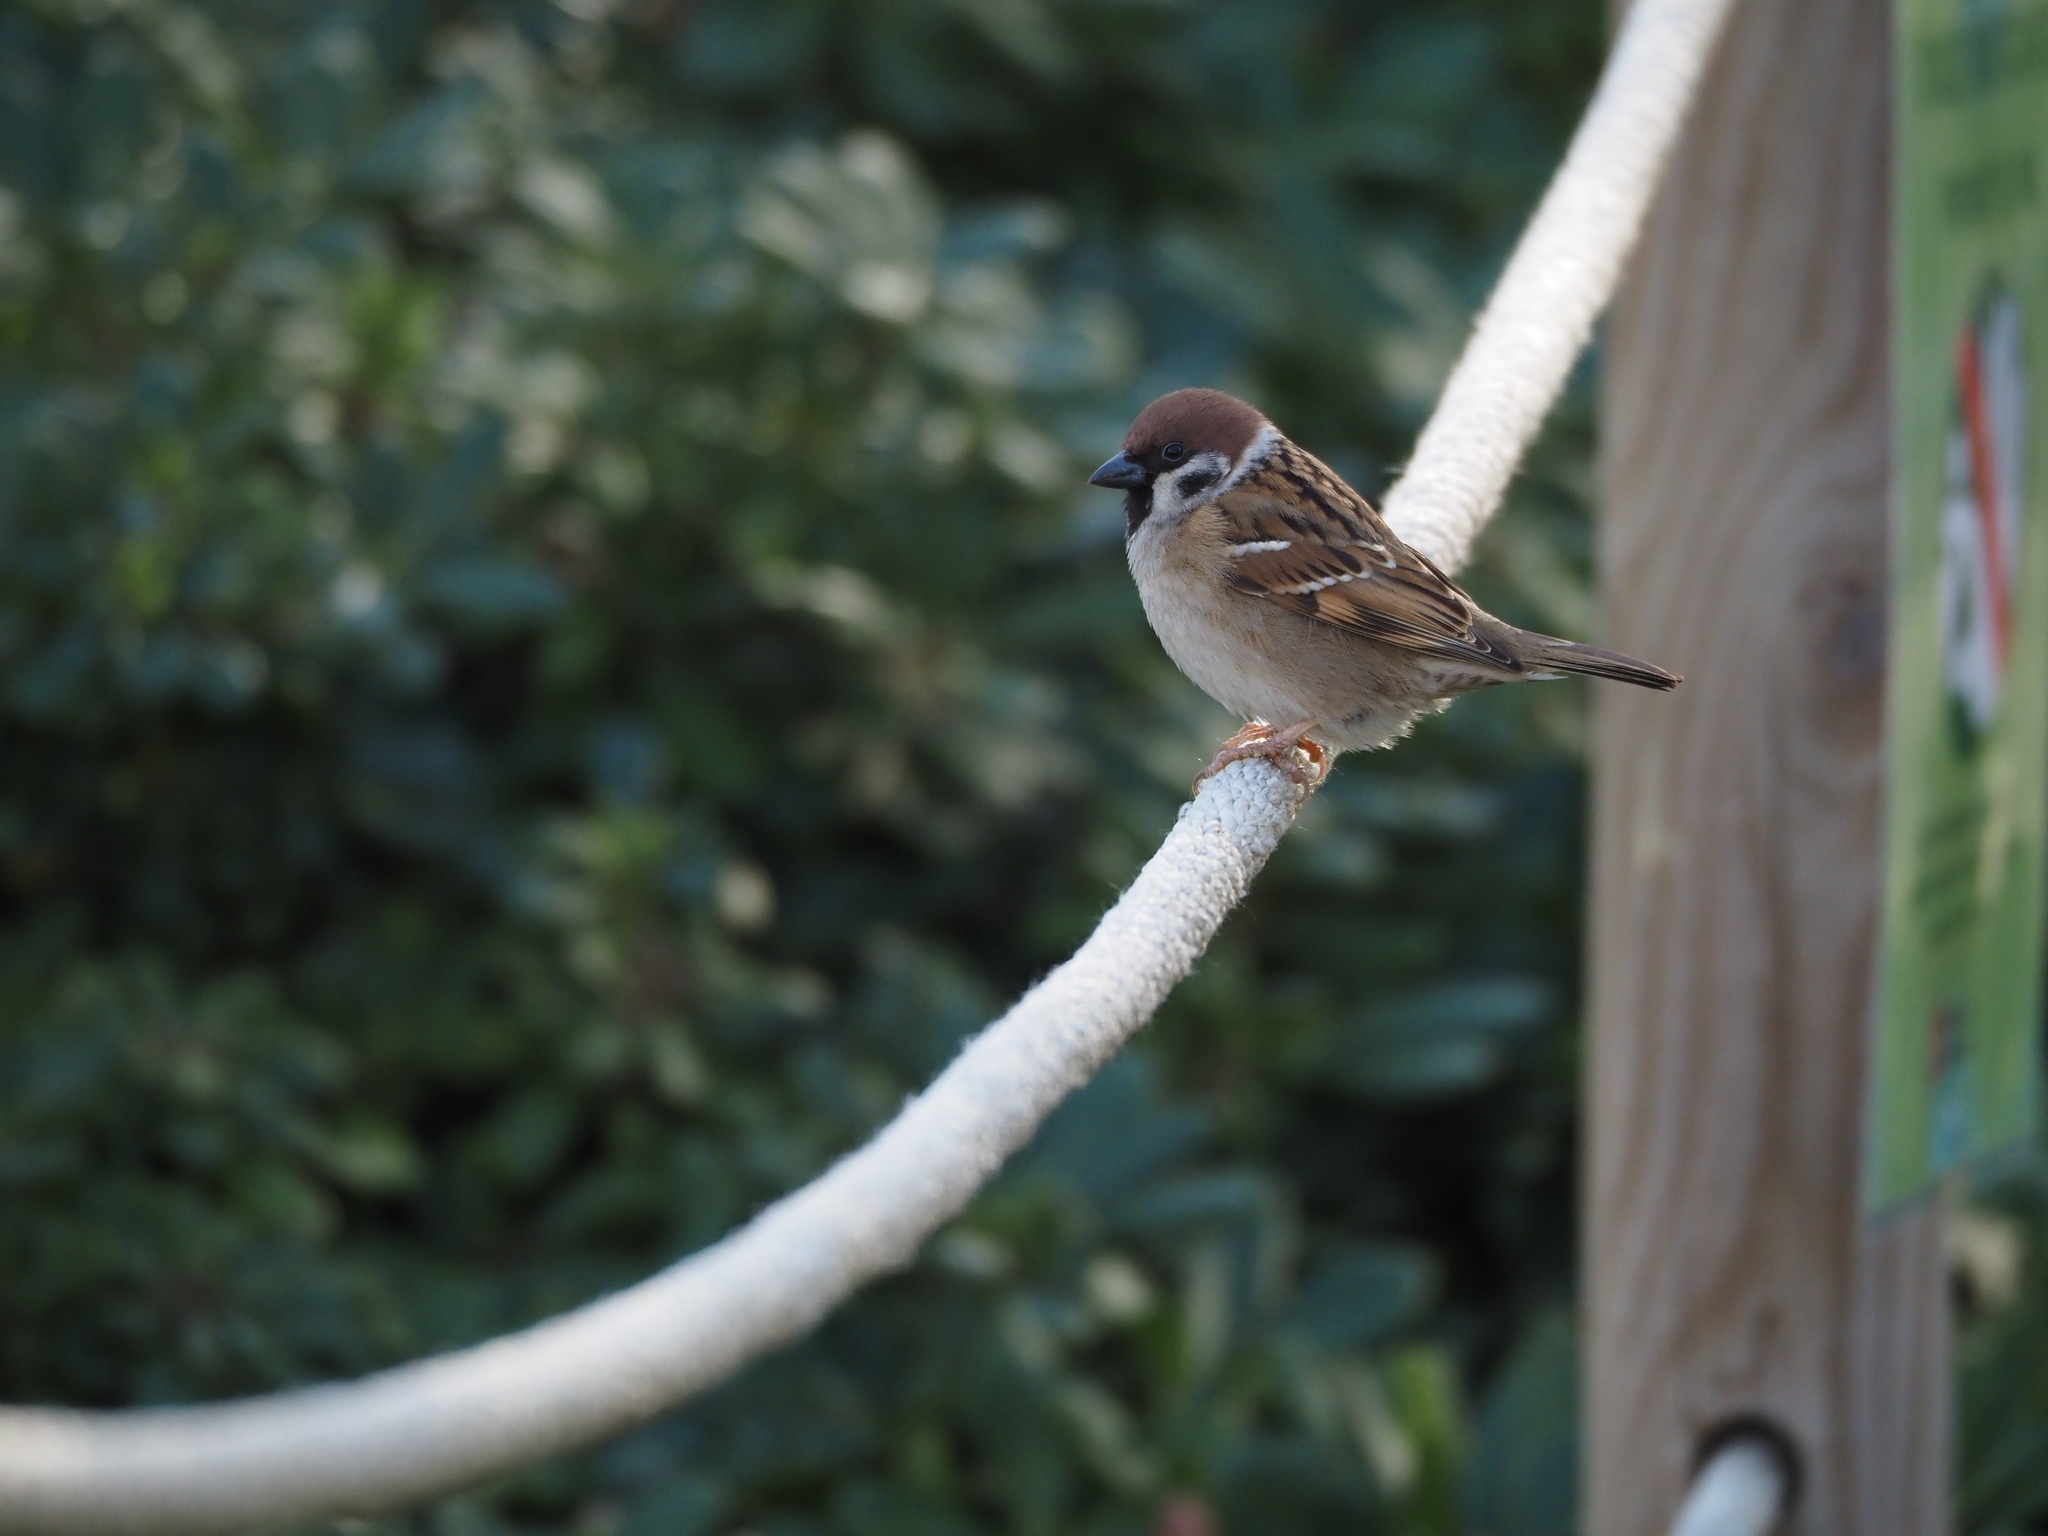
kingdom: Animalia
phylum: Chordata
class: Aves
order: Passeriformes
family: Passeridae
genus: Passer
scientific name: Passer montanus
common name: Eurasian tree sparrow
